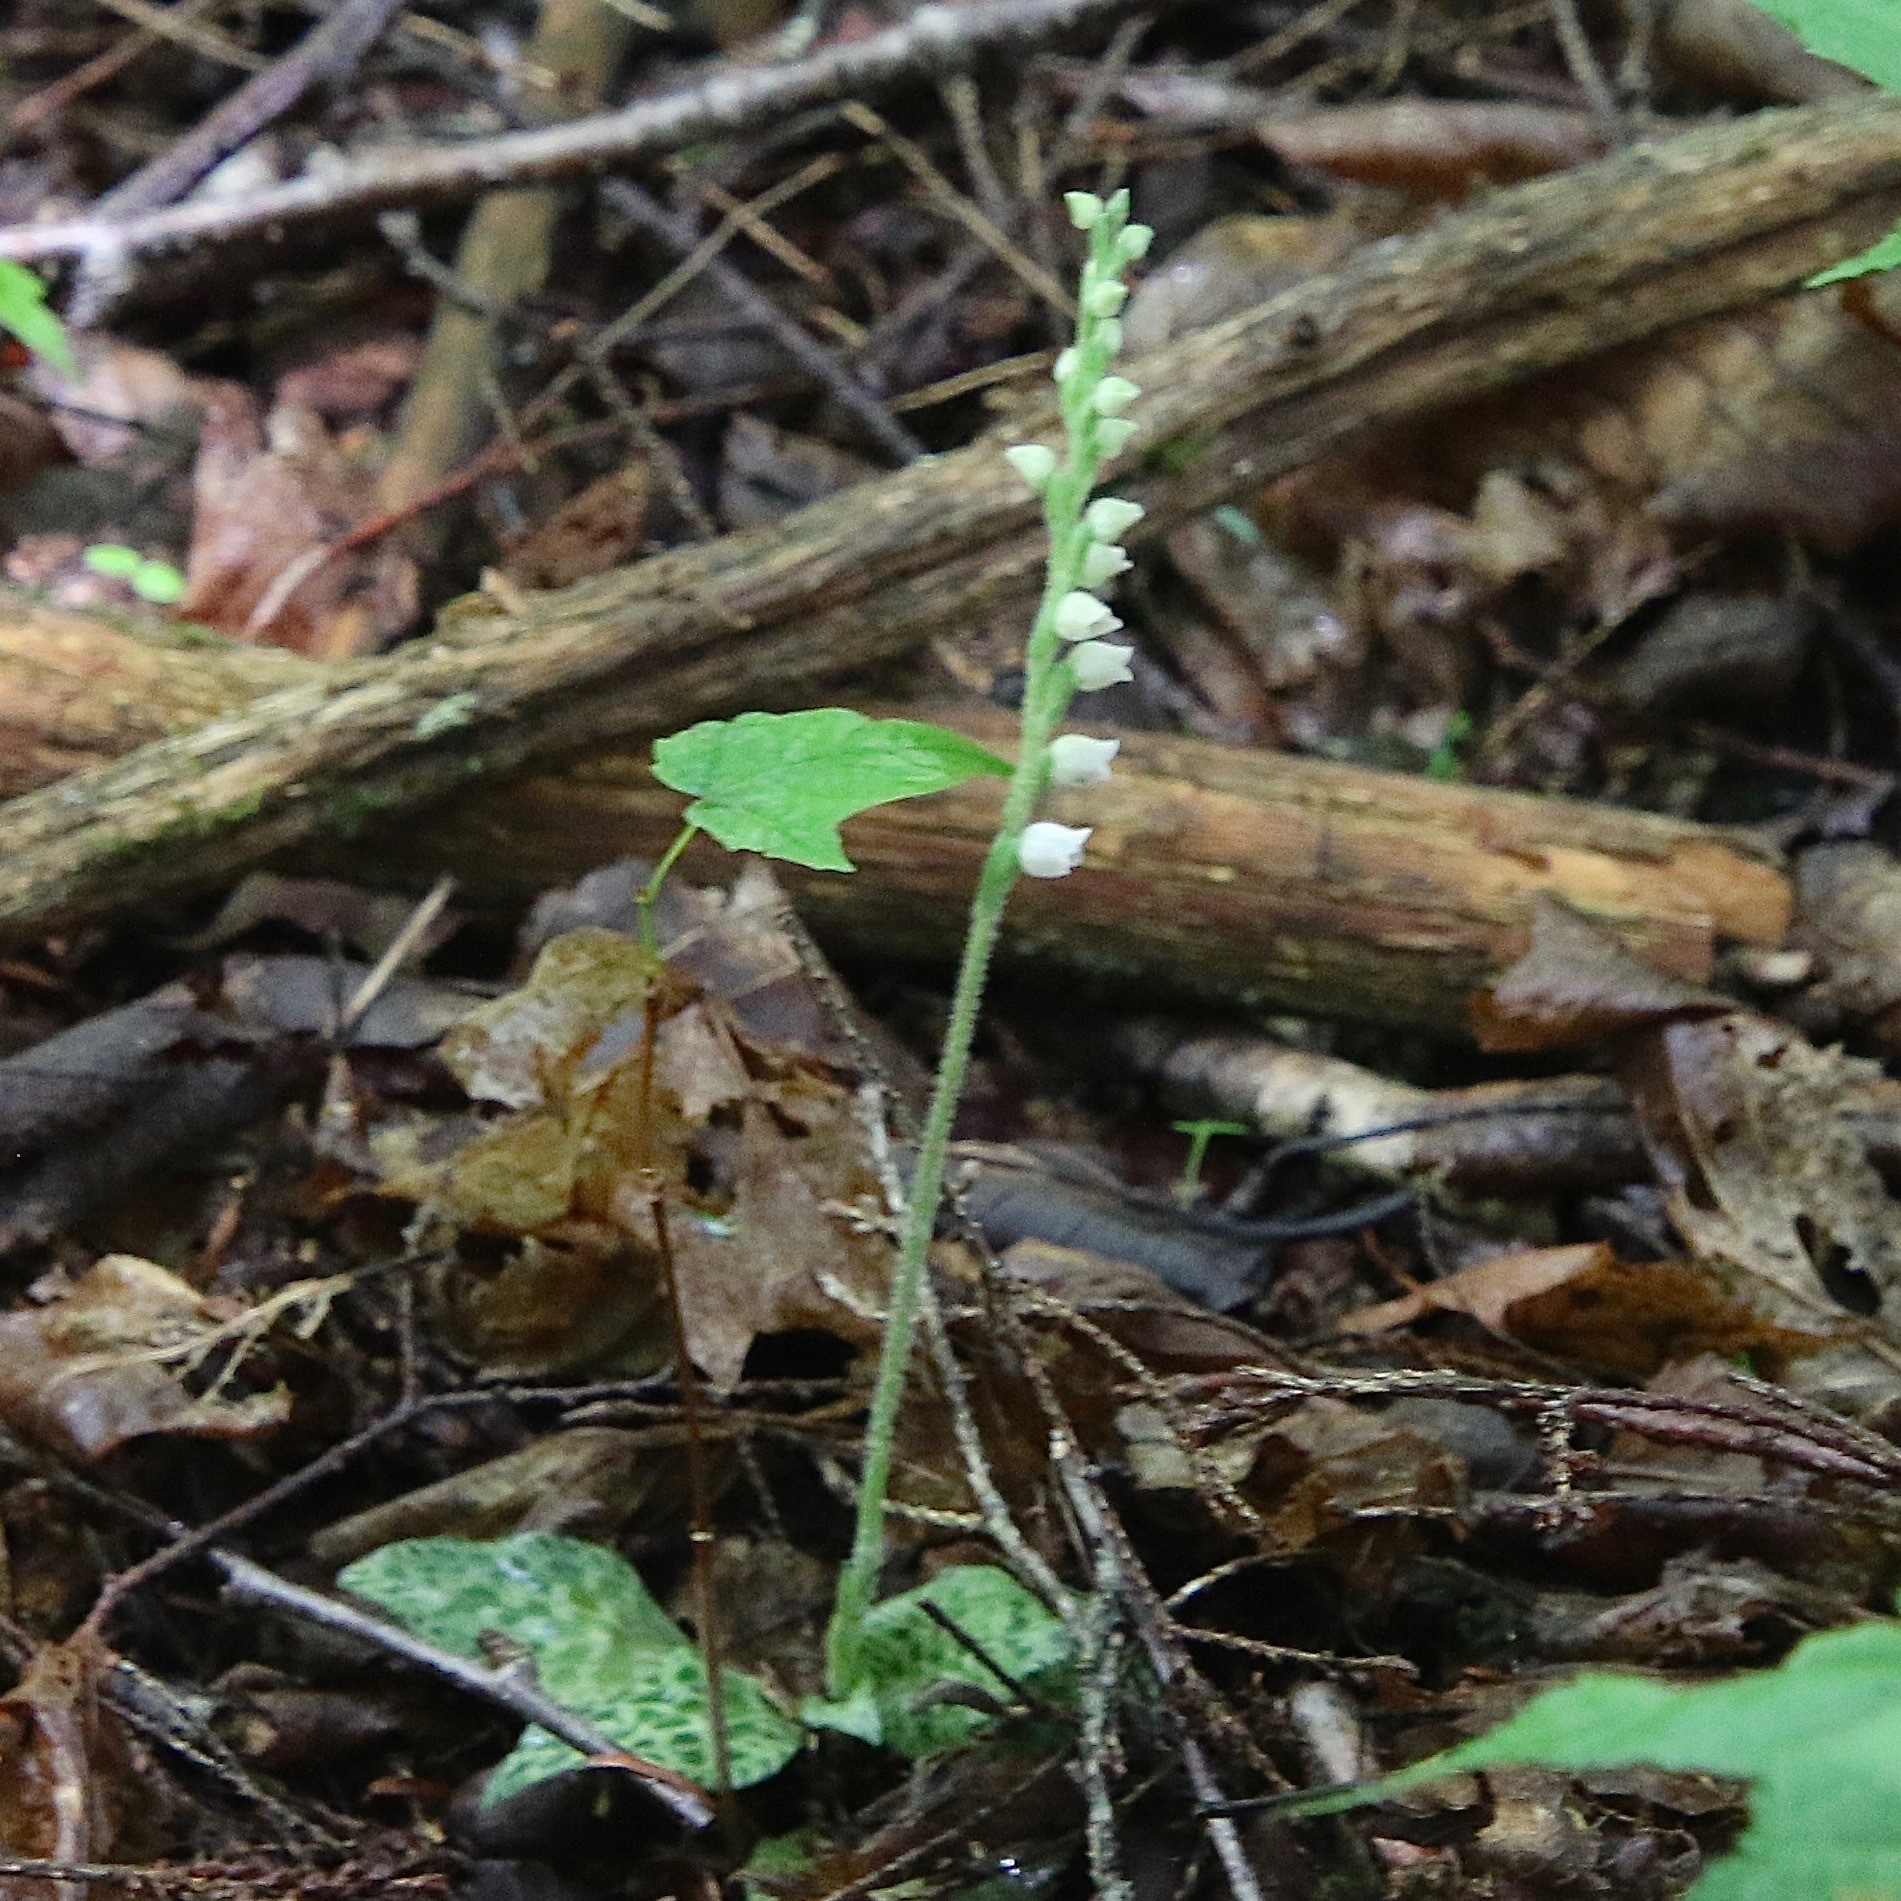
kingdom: Plantae
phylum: Tracheophyta
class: Liliopsida
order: Asparagales
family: Orchidaceae
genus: Goodyera
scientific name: Goodyera tesselata
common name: Checkered rattlesnake-plantain
